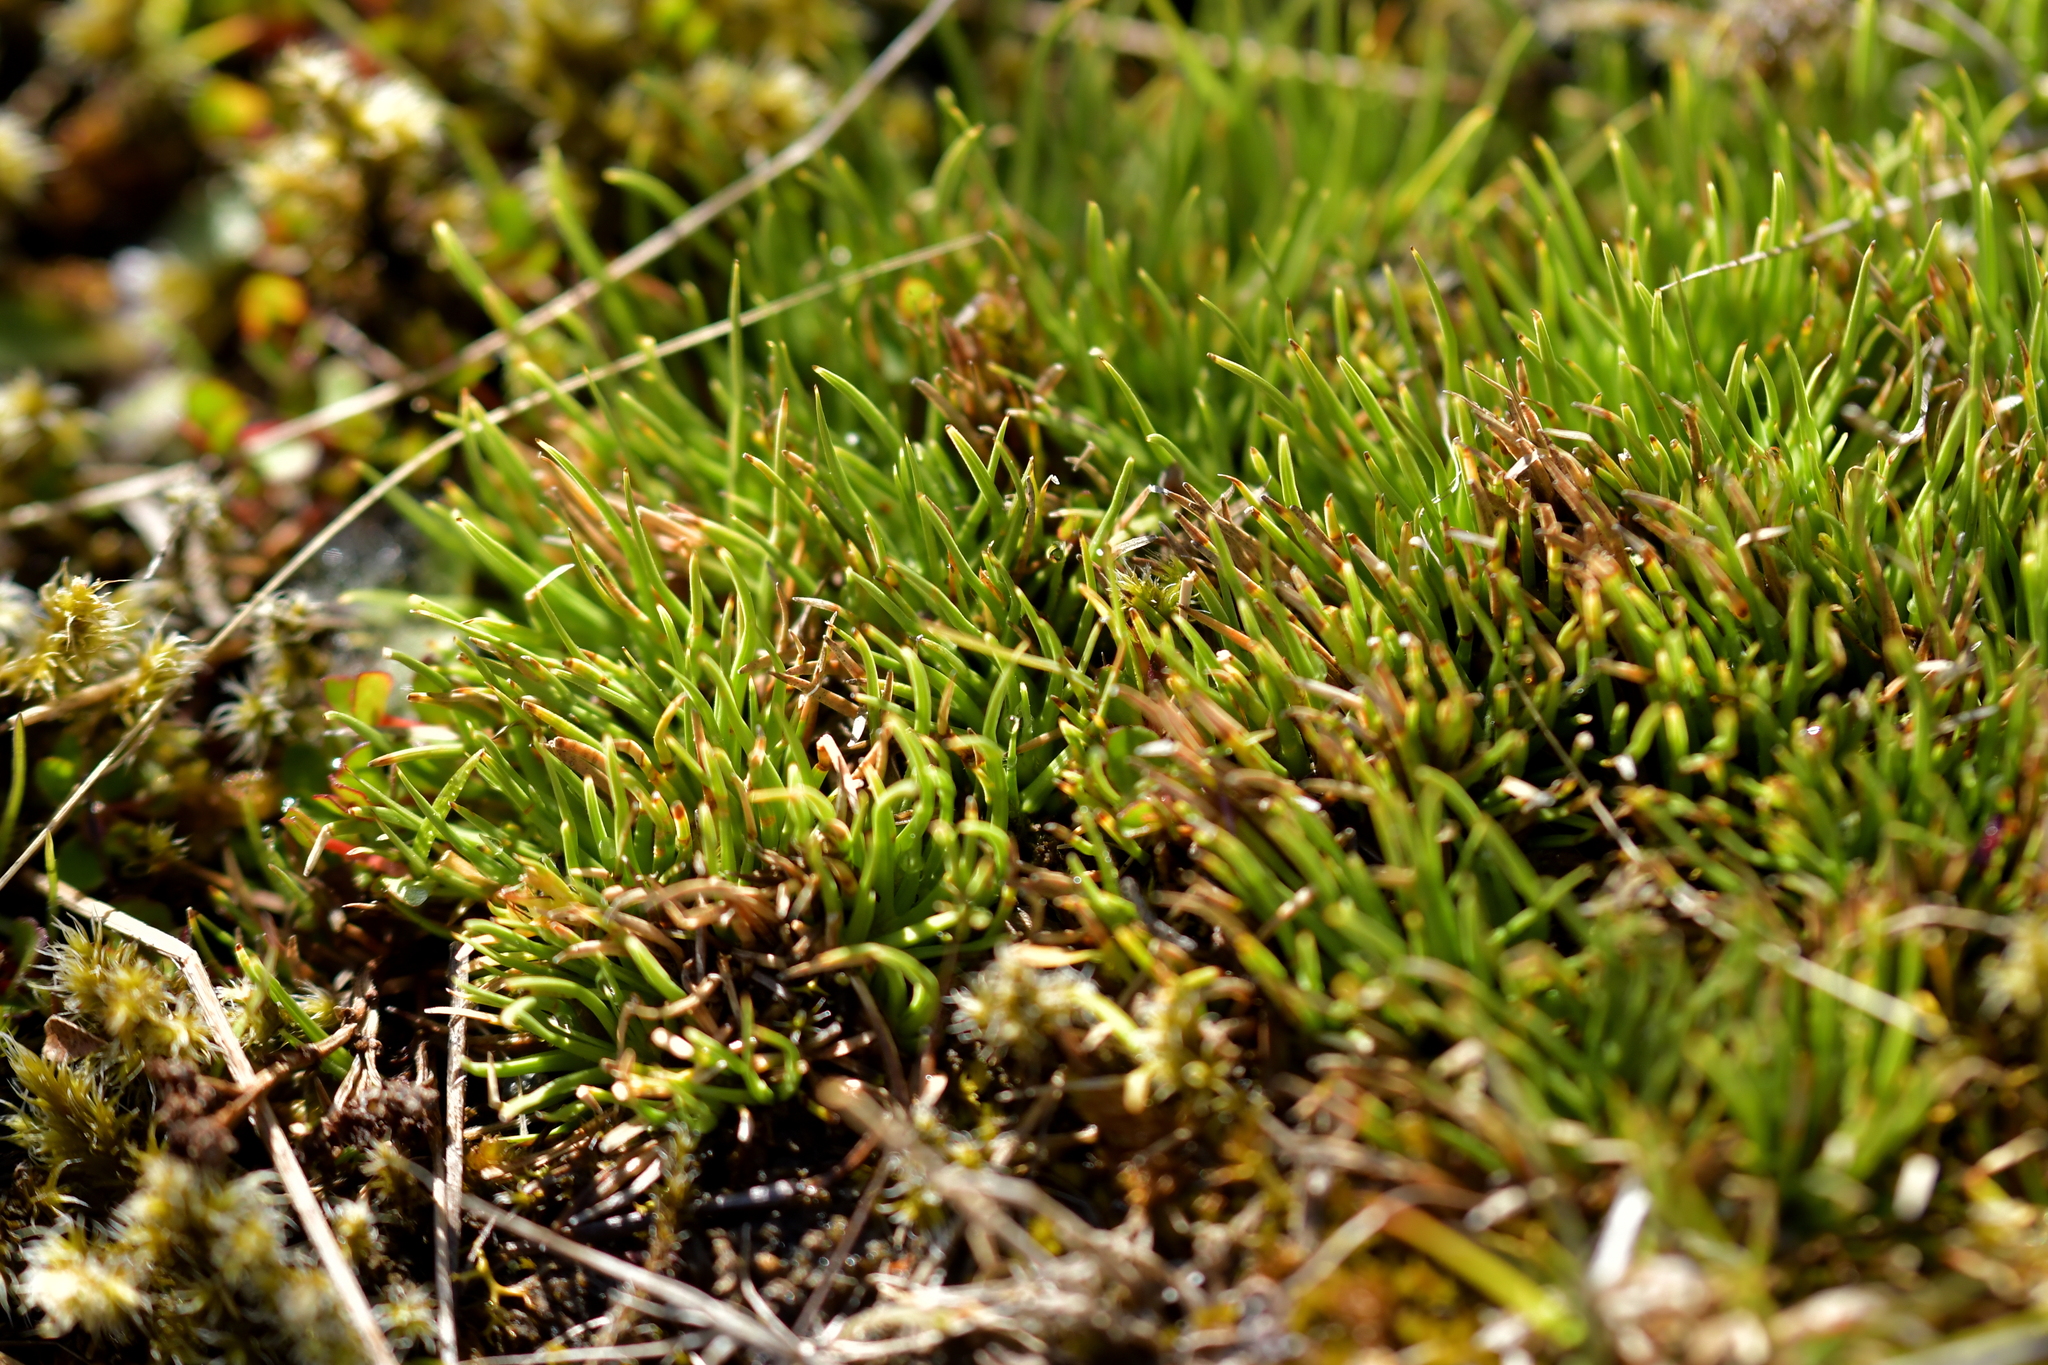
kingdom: Plantae
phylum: Tracheophyta
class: Liliopsida
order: Poales
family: Cyperaceae
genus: Oreobolus
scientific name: Oreobolus pectinatus
